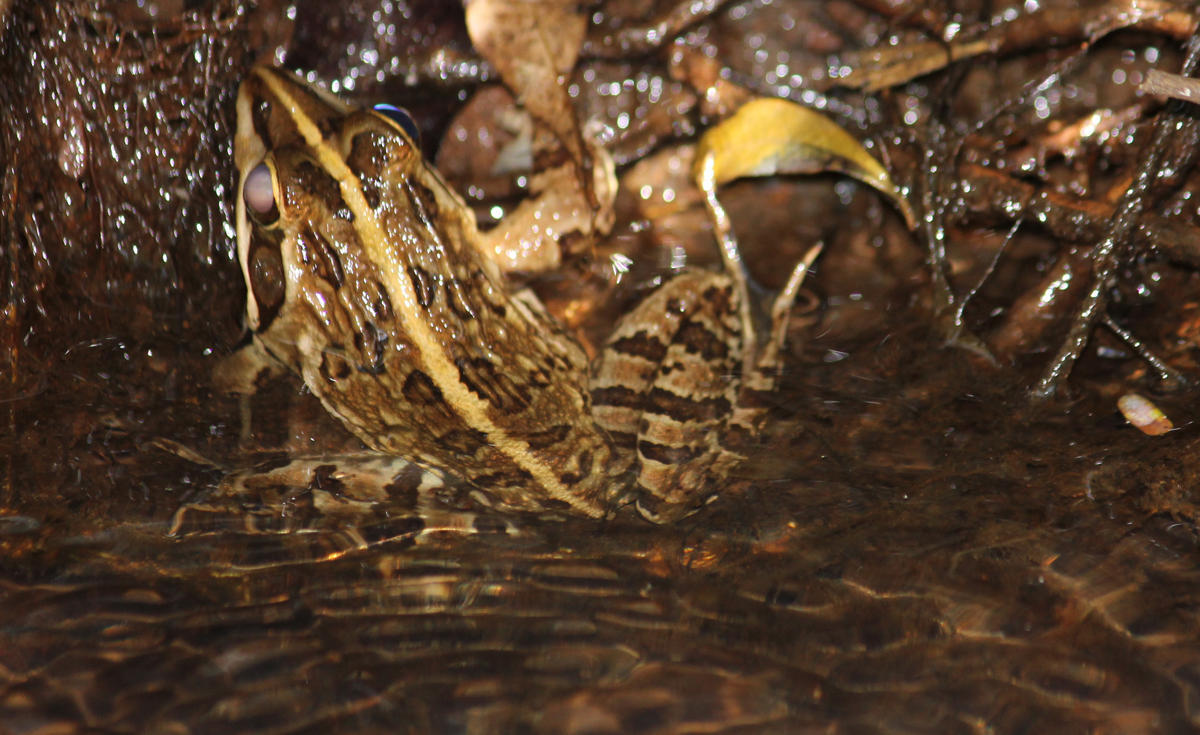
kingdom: Animalia
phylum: Chordata
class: Amphibia
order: Anura
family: Pyxicephalidae
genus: Amietia
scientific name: Amietia delalandii
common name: Delalande's river frog
